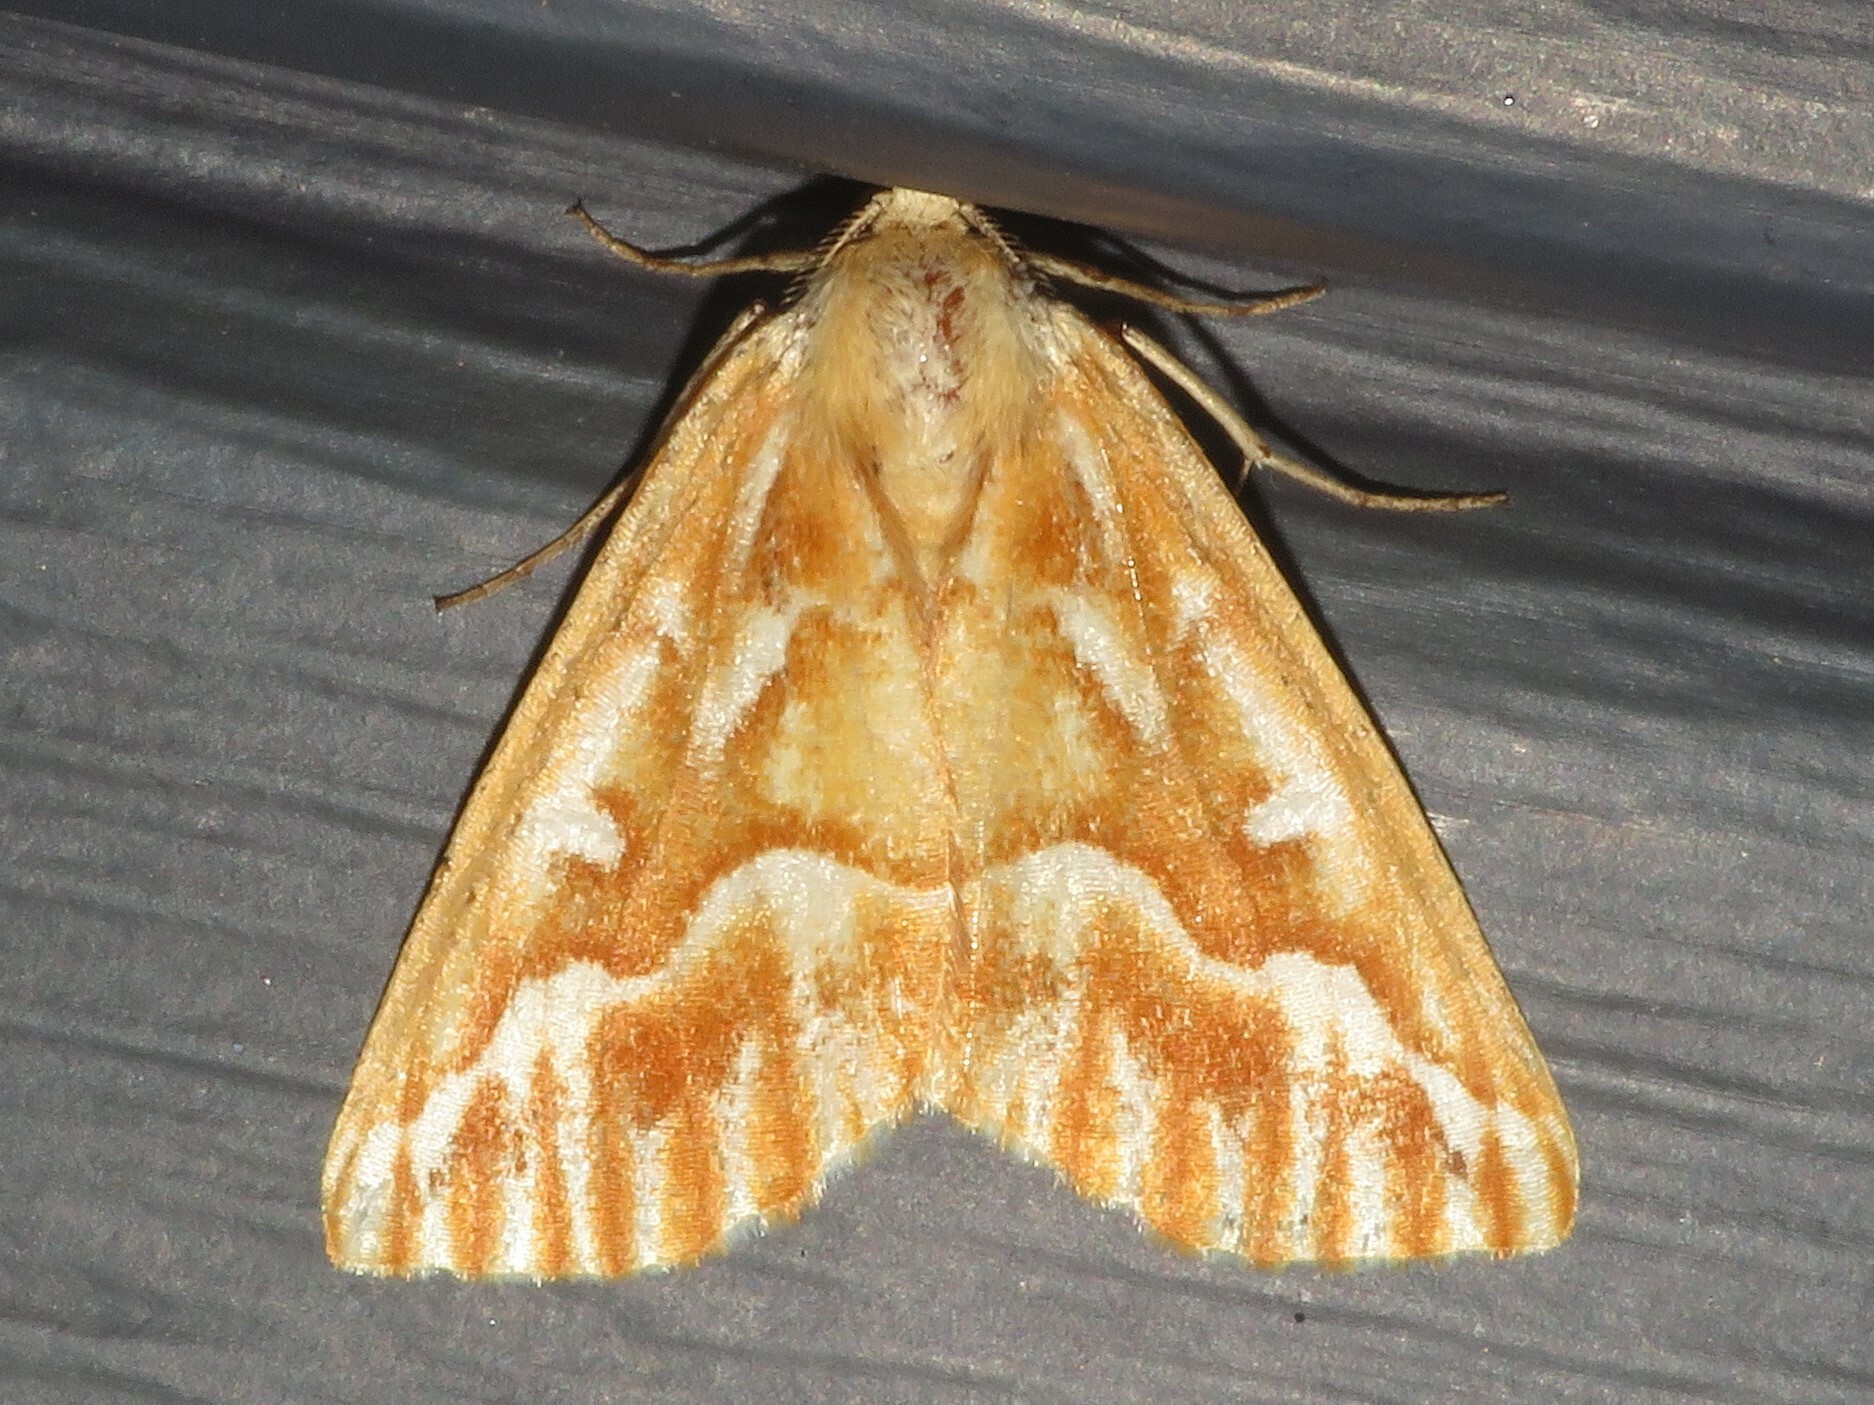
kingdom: Animalia
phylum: Arthropoda
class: Insecta
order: Lepidoptera
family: Geometridae
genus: Caripeta
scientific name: Caripeta piniata
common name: Northern pine looper moth
